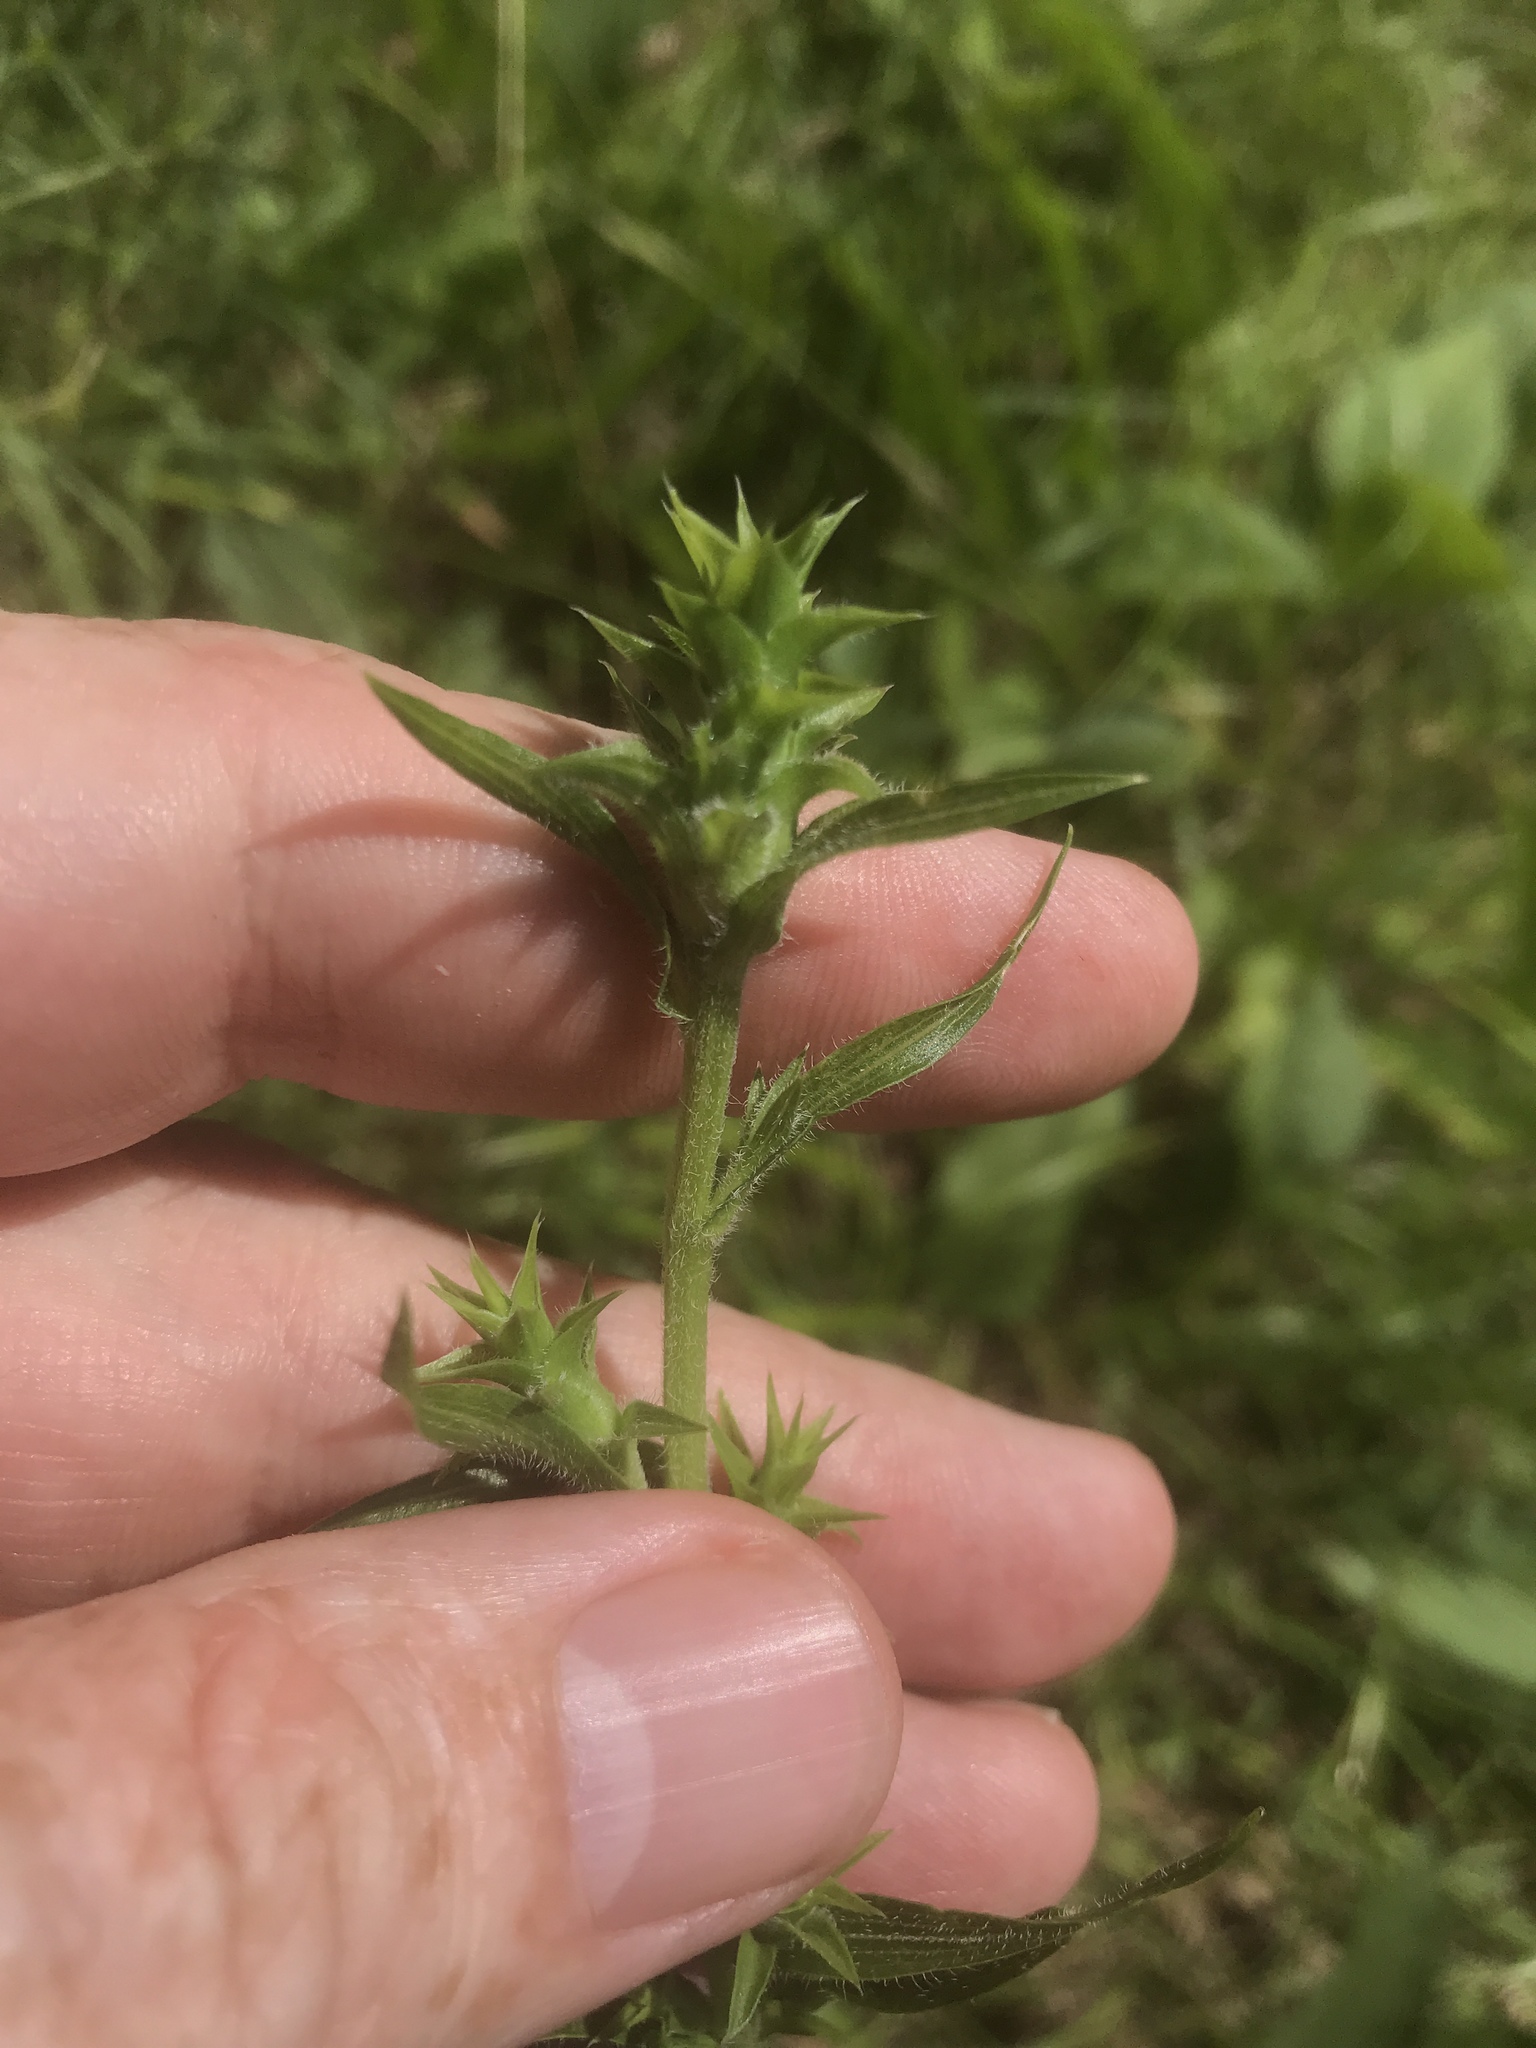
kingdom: Plantae
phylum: Tracheophyta
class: Magnoliopsida
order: Asterales
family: Asteraceae
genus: Liatris
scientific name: Liatris squarrosa
